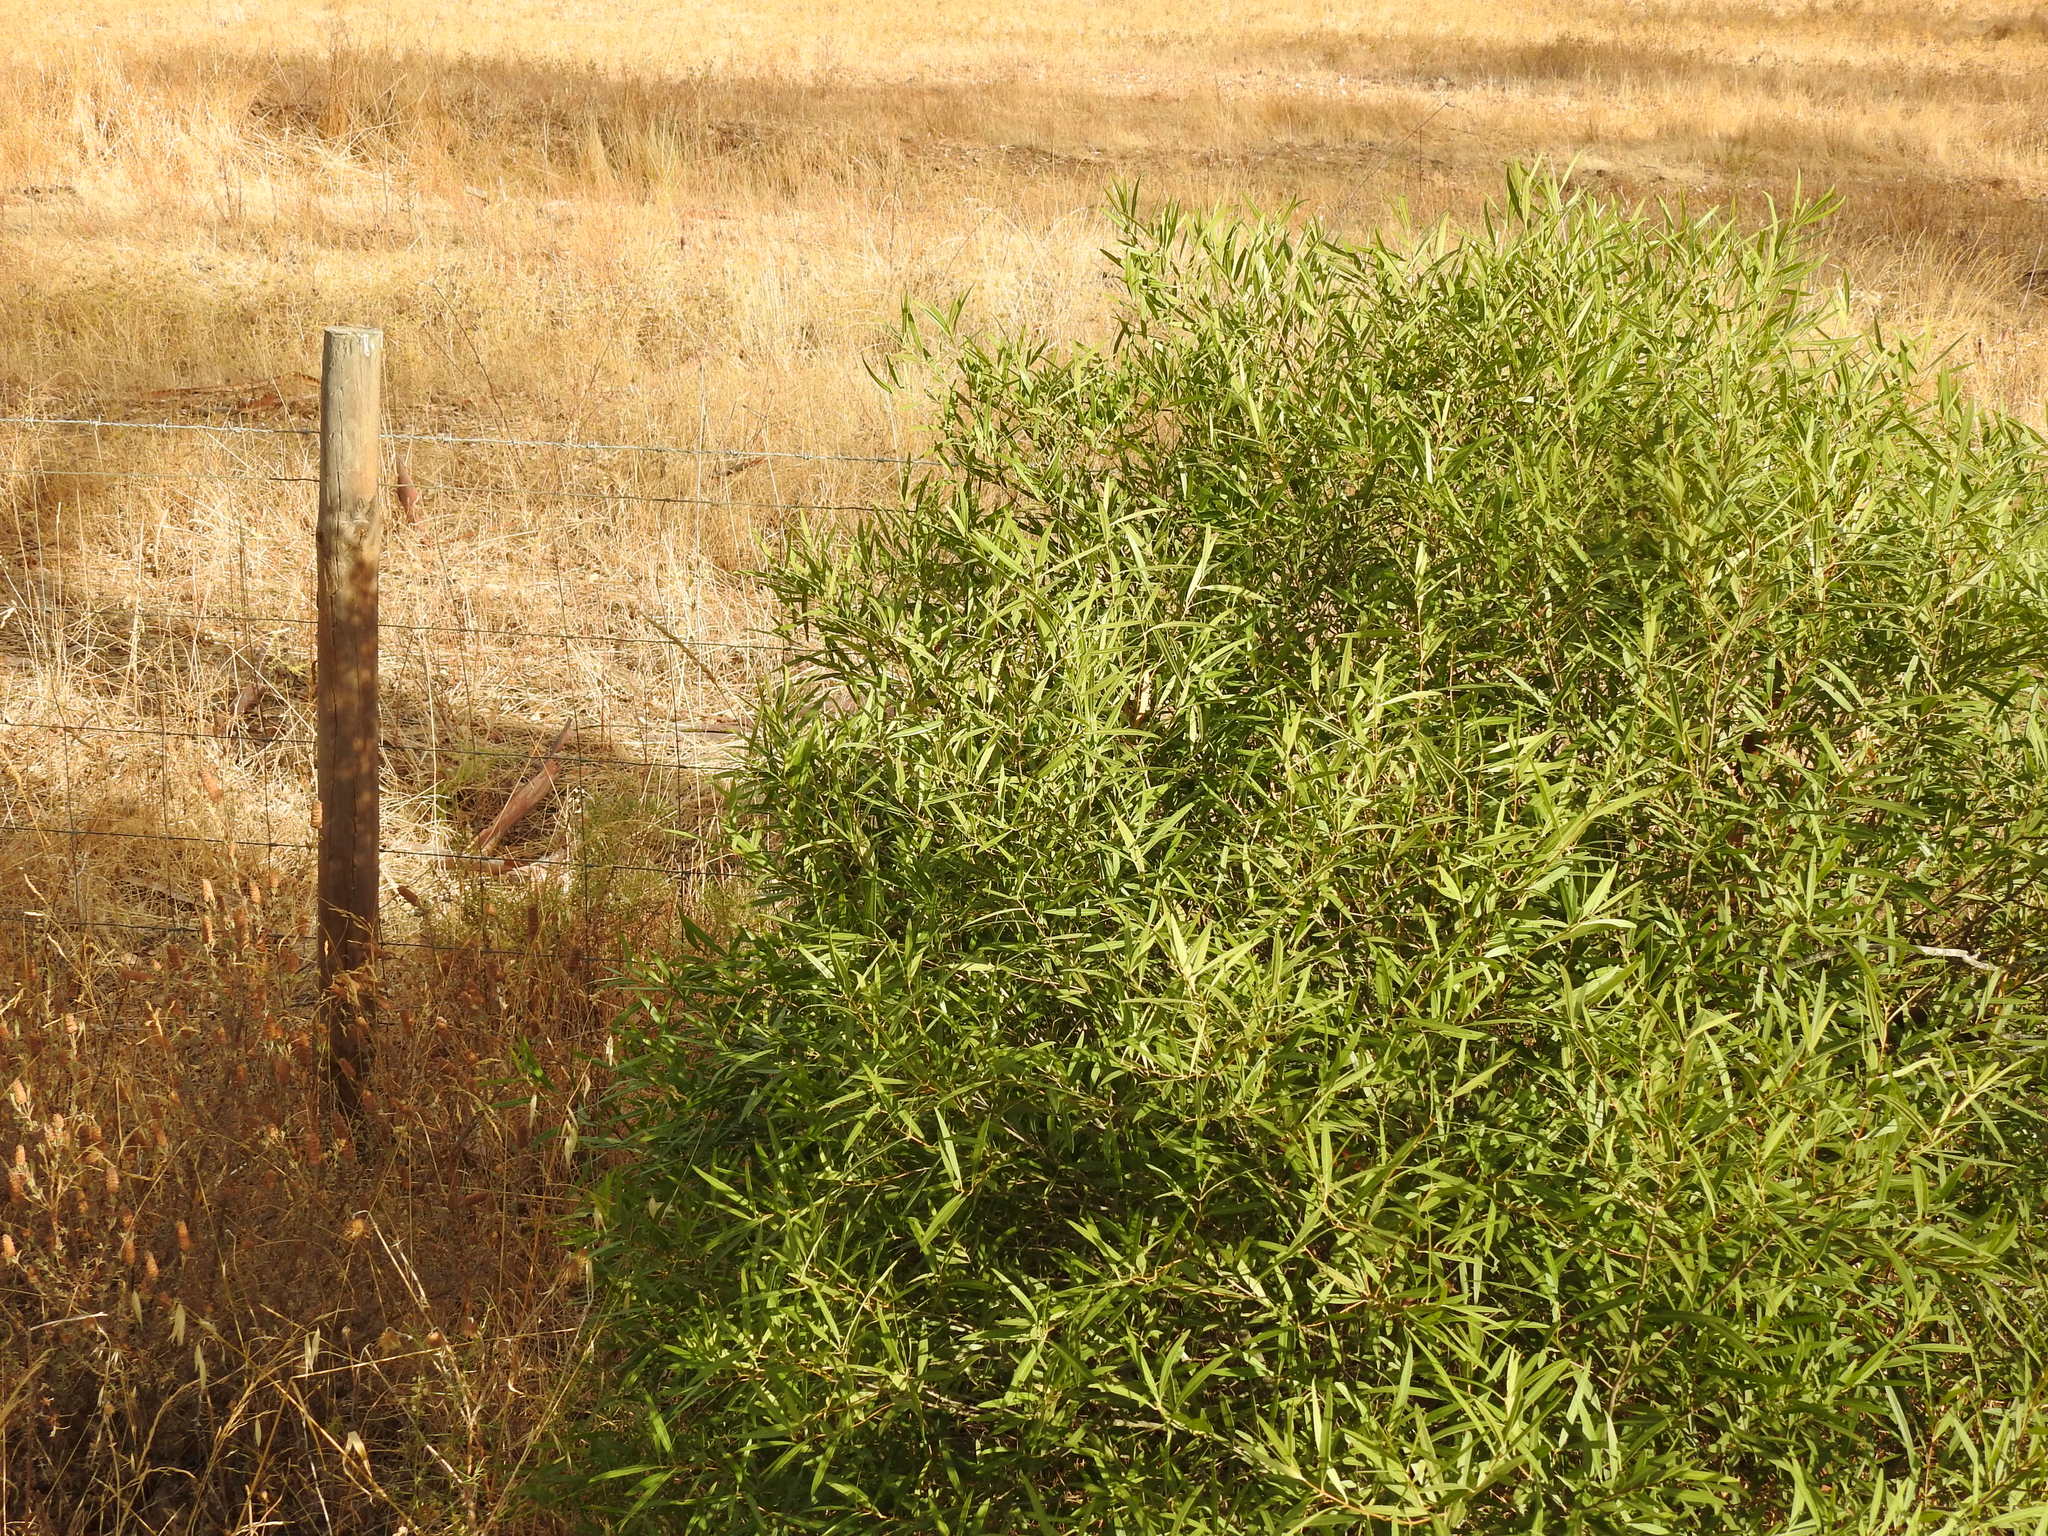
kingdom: Plantae
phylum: Tracheophyta
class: Magnoliopsida
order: Lamiales
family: Oleaceae
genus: Phillyrea
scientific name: Phillyrea angustifolia
